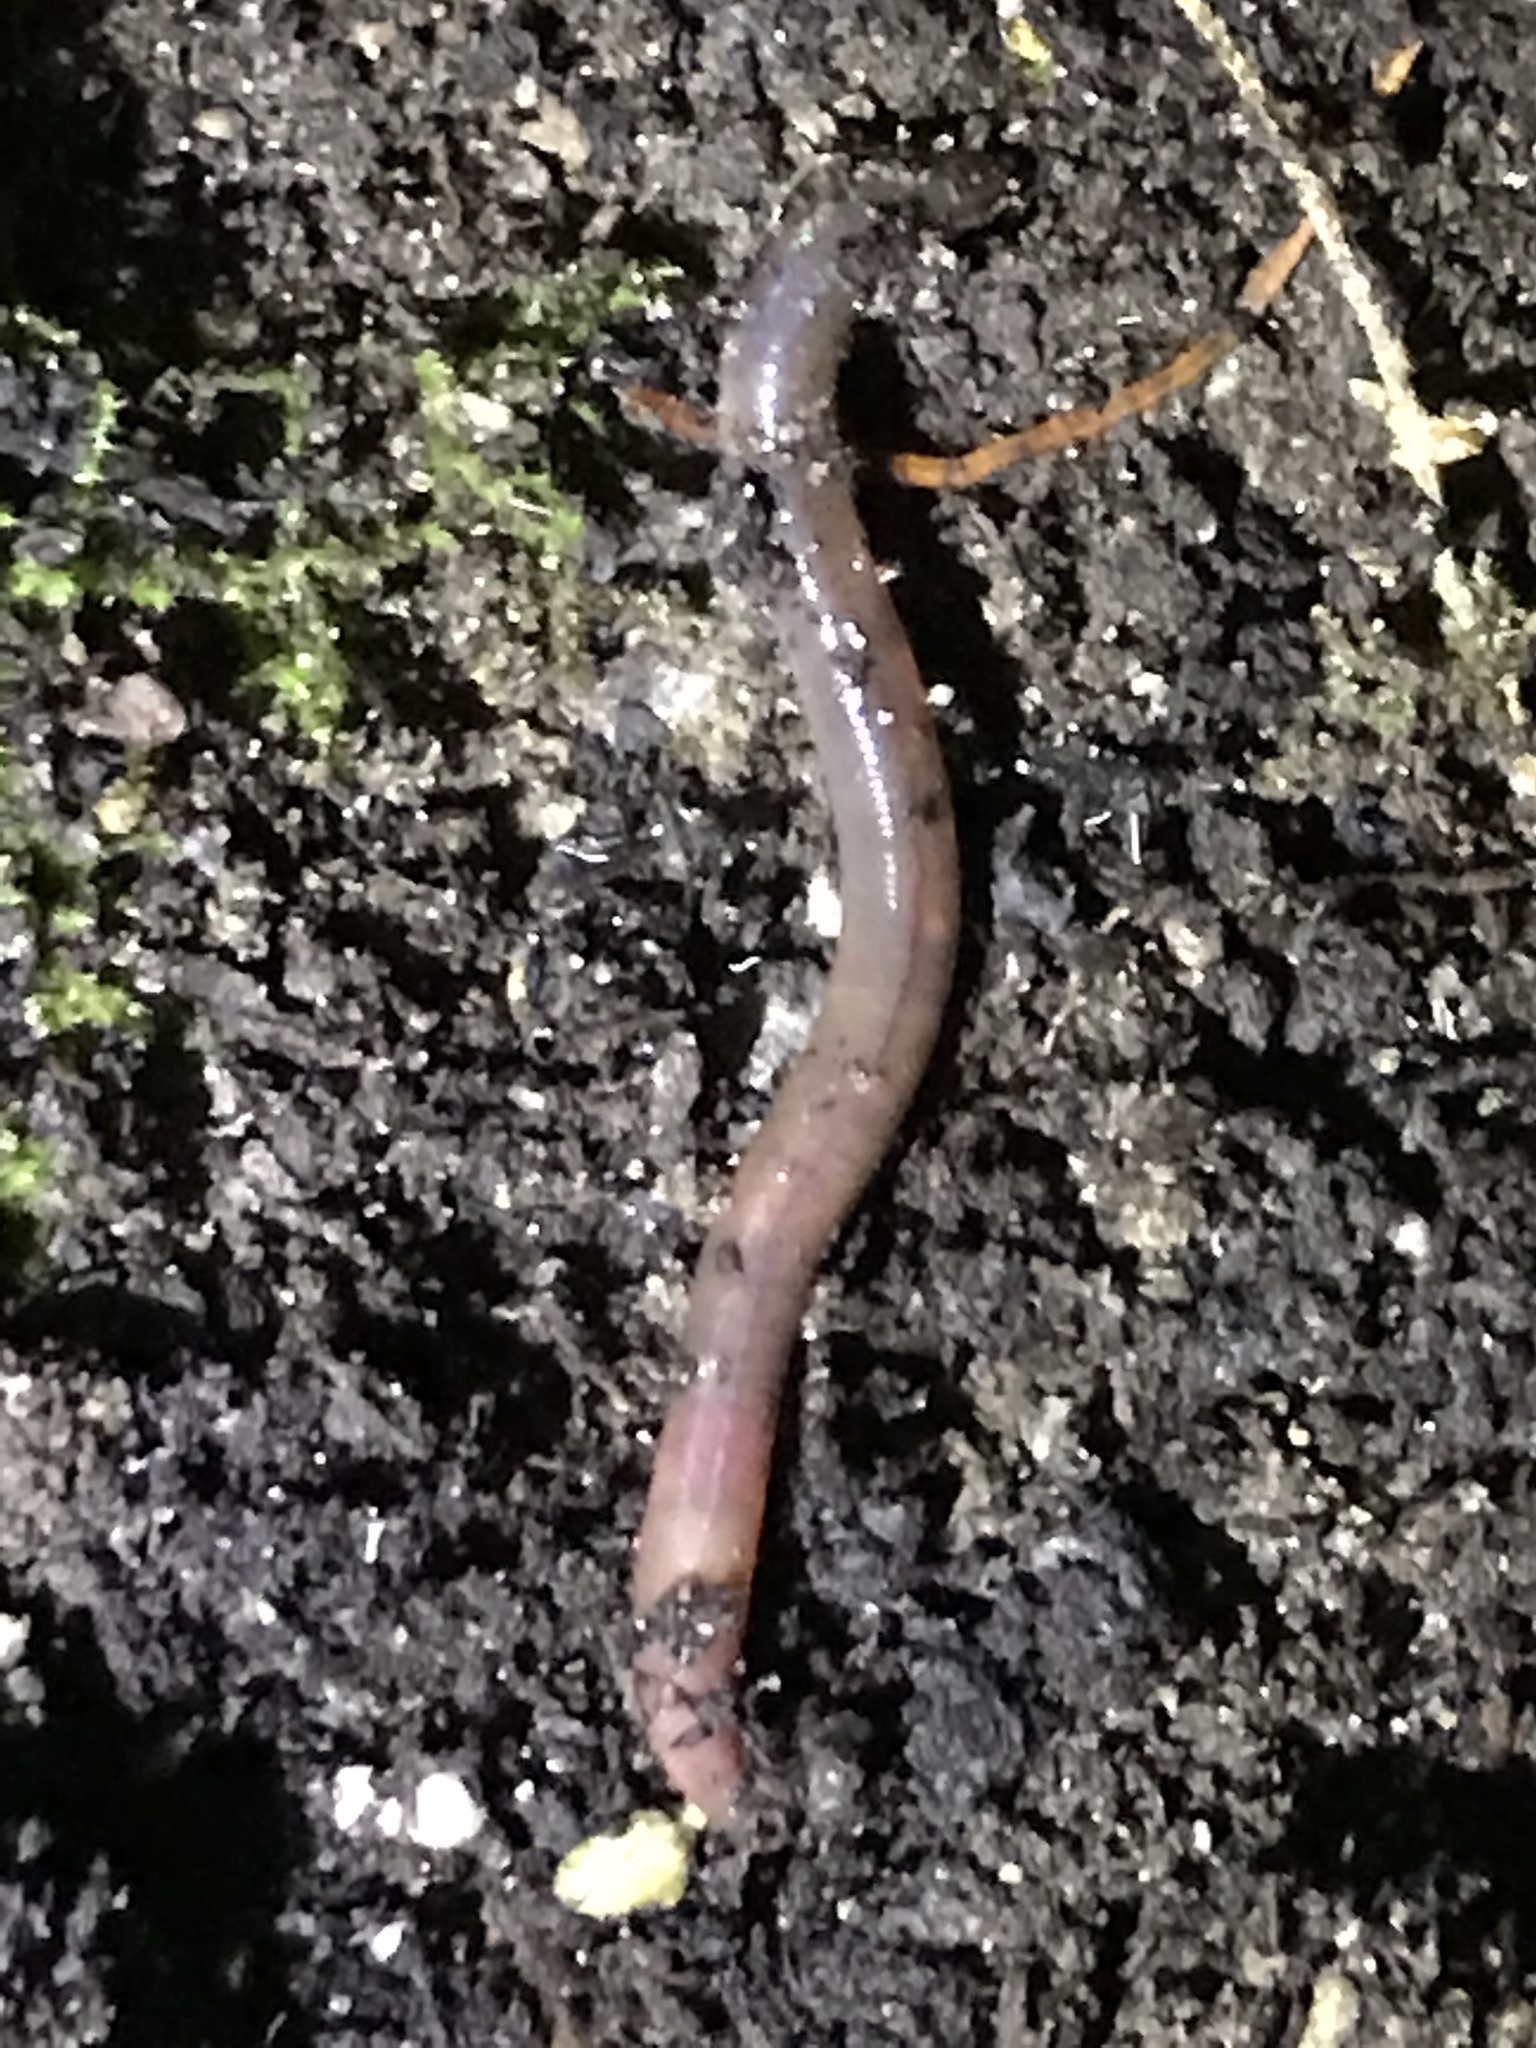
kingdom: Animalia
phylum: Annelida
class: Clitellata
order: Crassiclitellata
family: Lumbricidae
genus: Lumbricus
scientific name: Lumbricus terrestris
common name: Common earthworm
